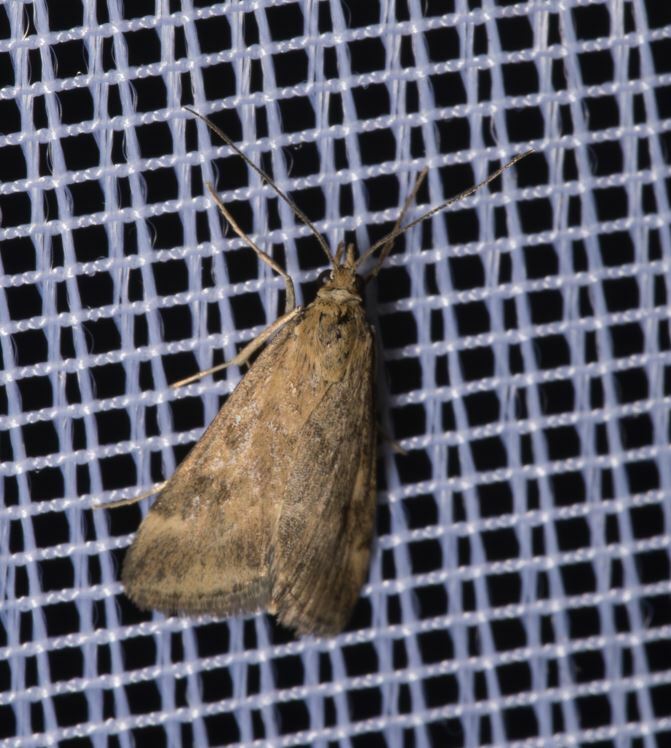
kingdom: Animalia
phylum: Arthropoda
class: Insecta
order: Lepidoptera
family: Crambidae
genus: Pyrausta
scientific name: Pyrausta despicata
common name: Straw-barred pearl
